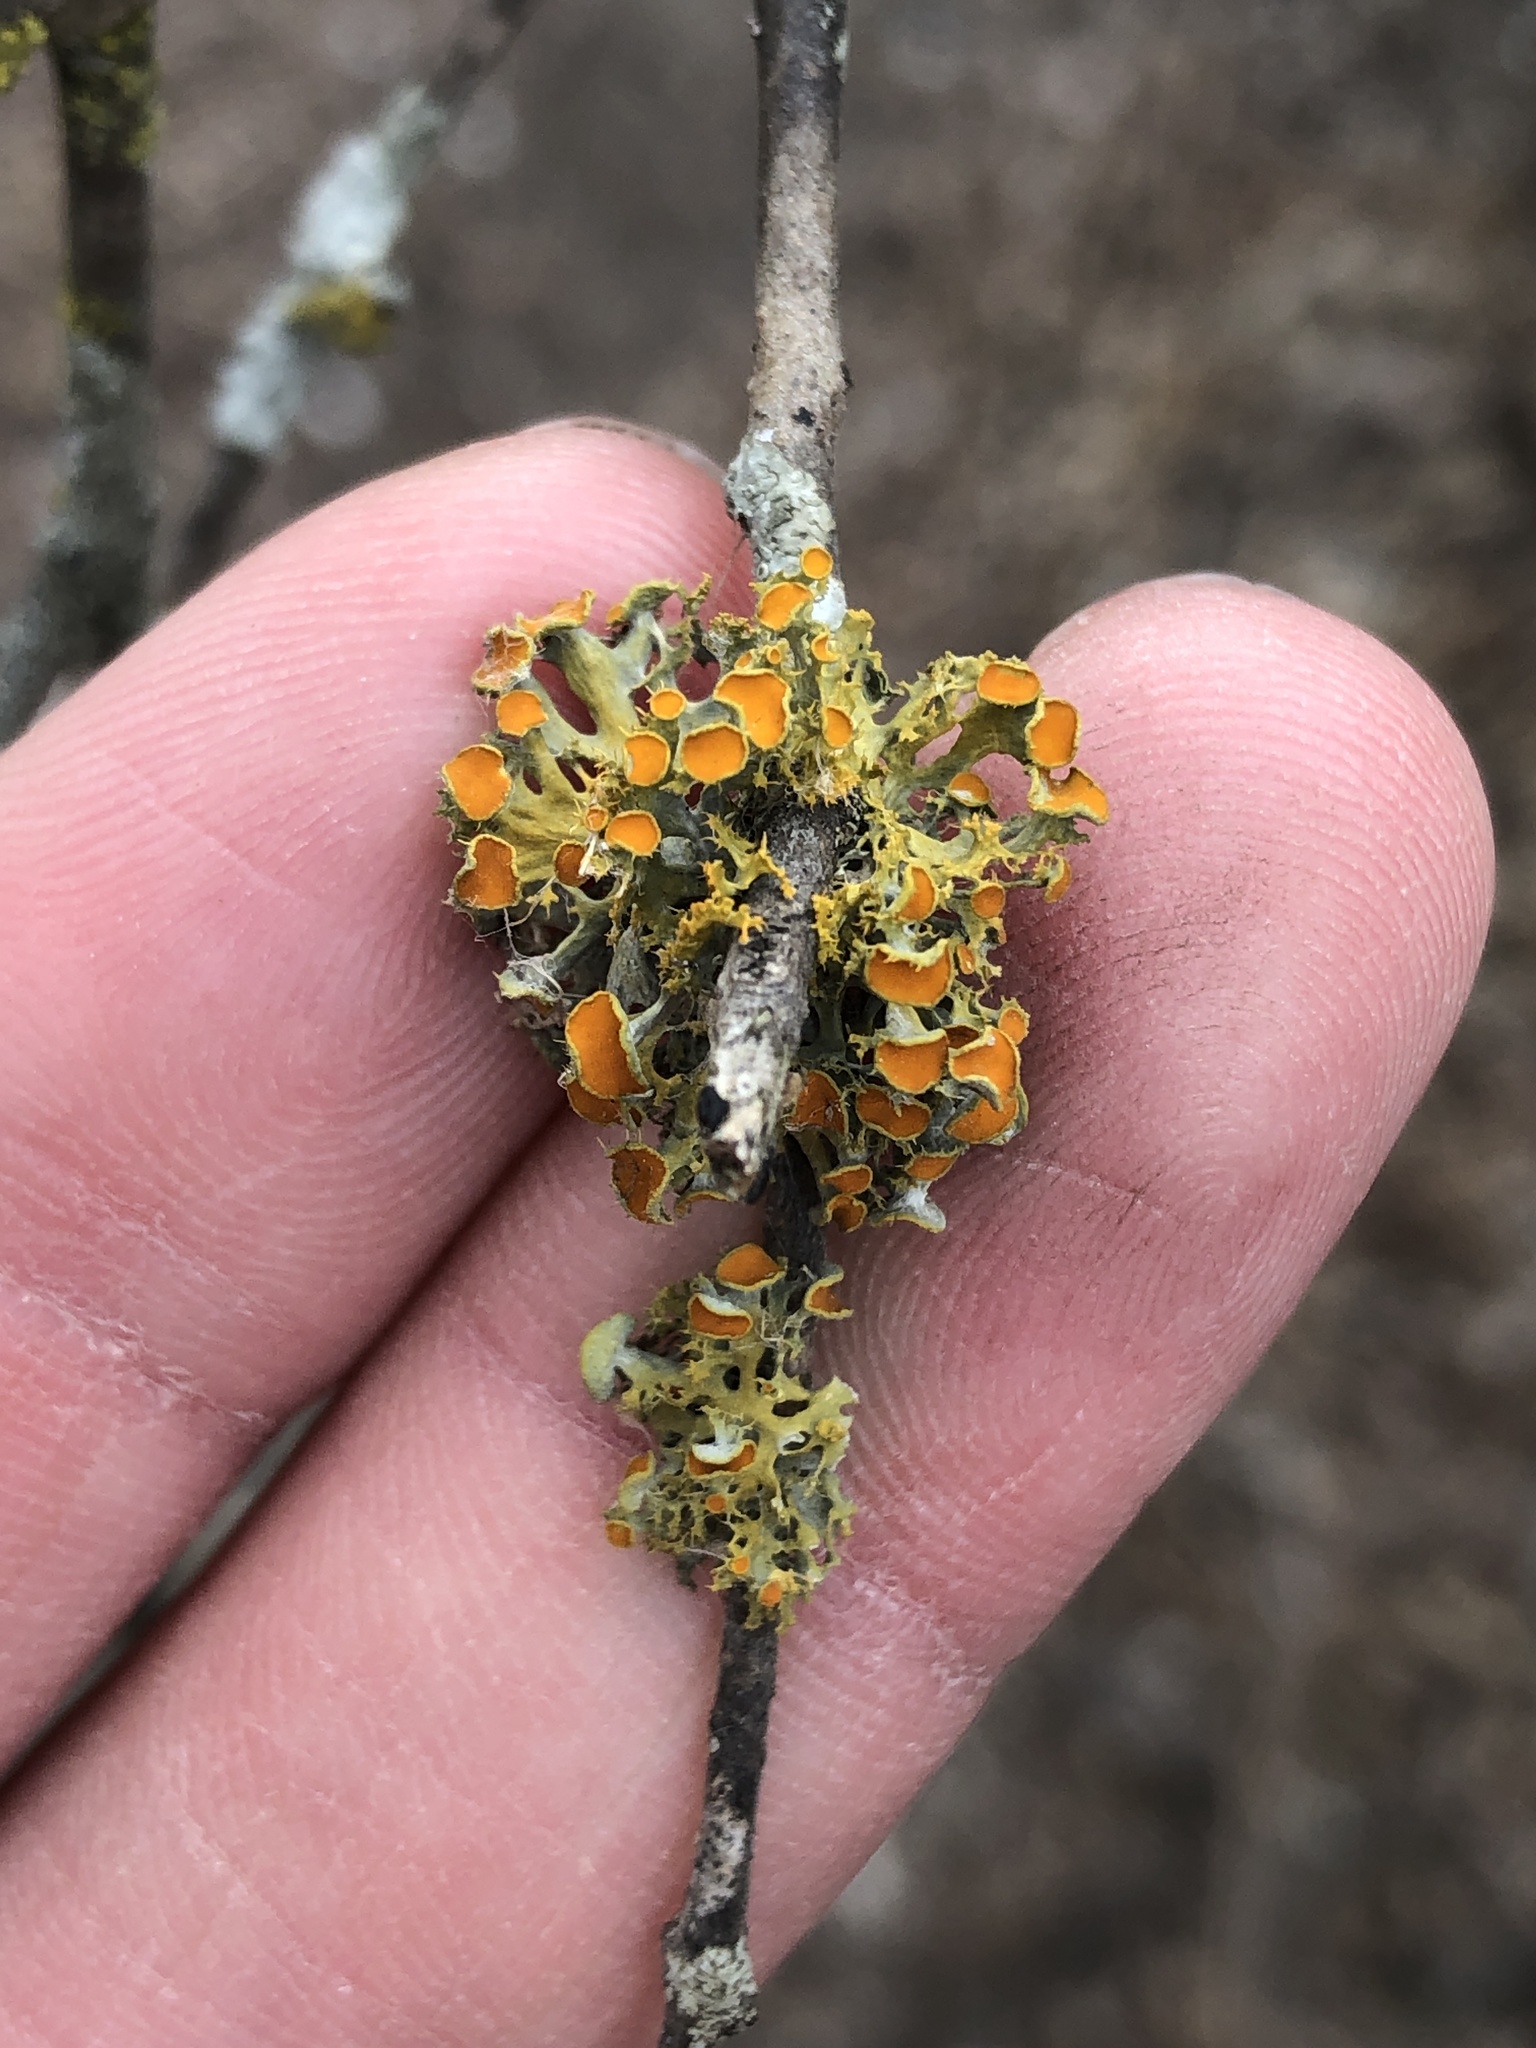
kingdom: Fungi
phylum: Ascomycota
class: Lecanoromycetes
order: Teloschistales
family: Teloschistaceae
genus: Niorma
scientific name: Niorma chrysophthalma
